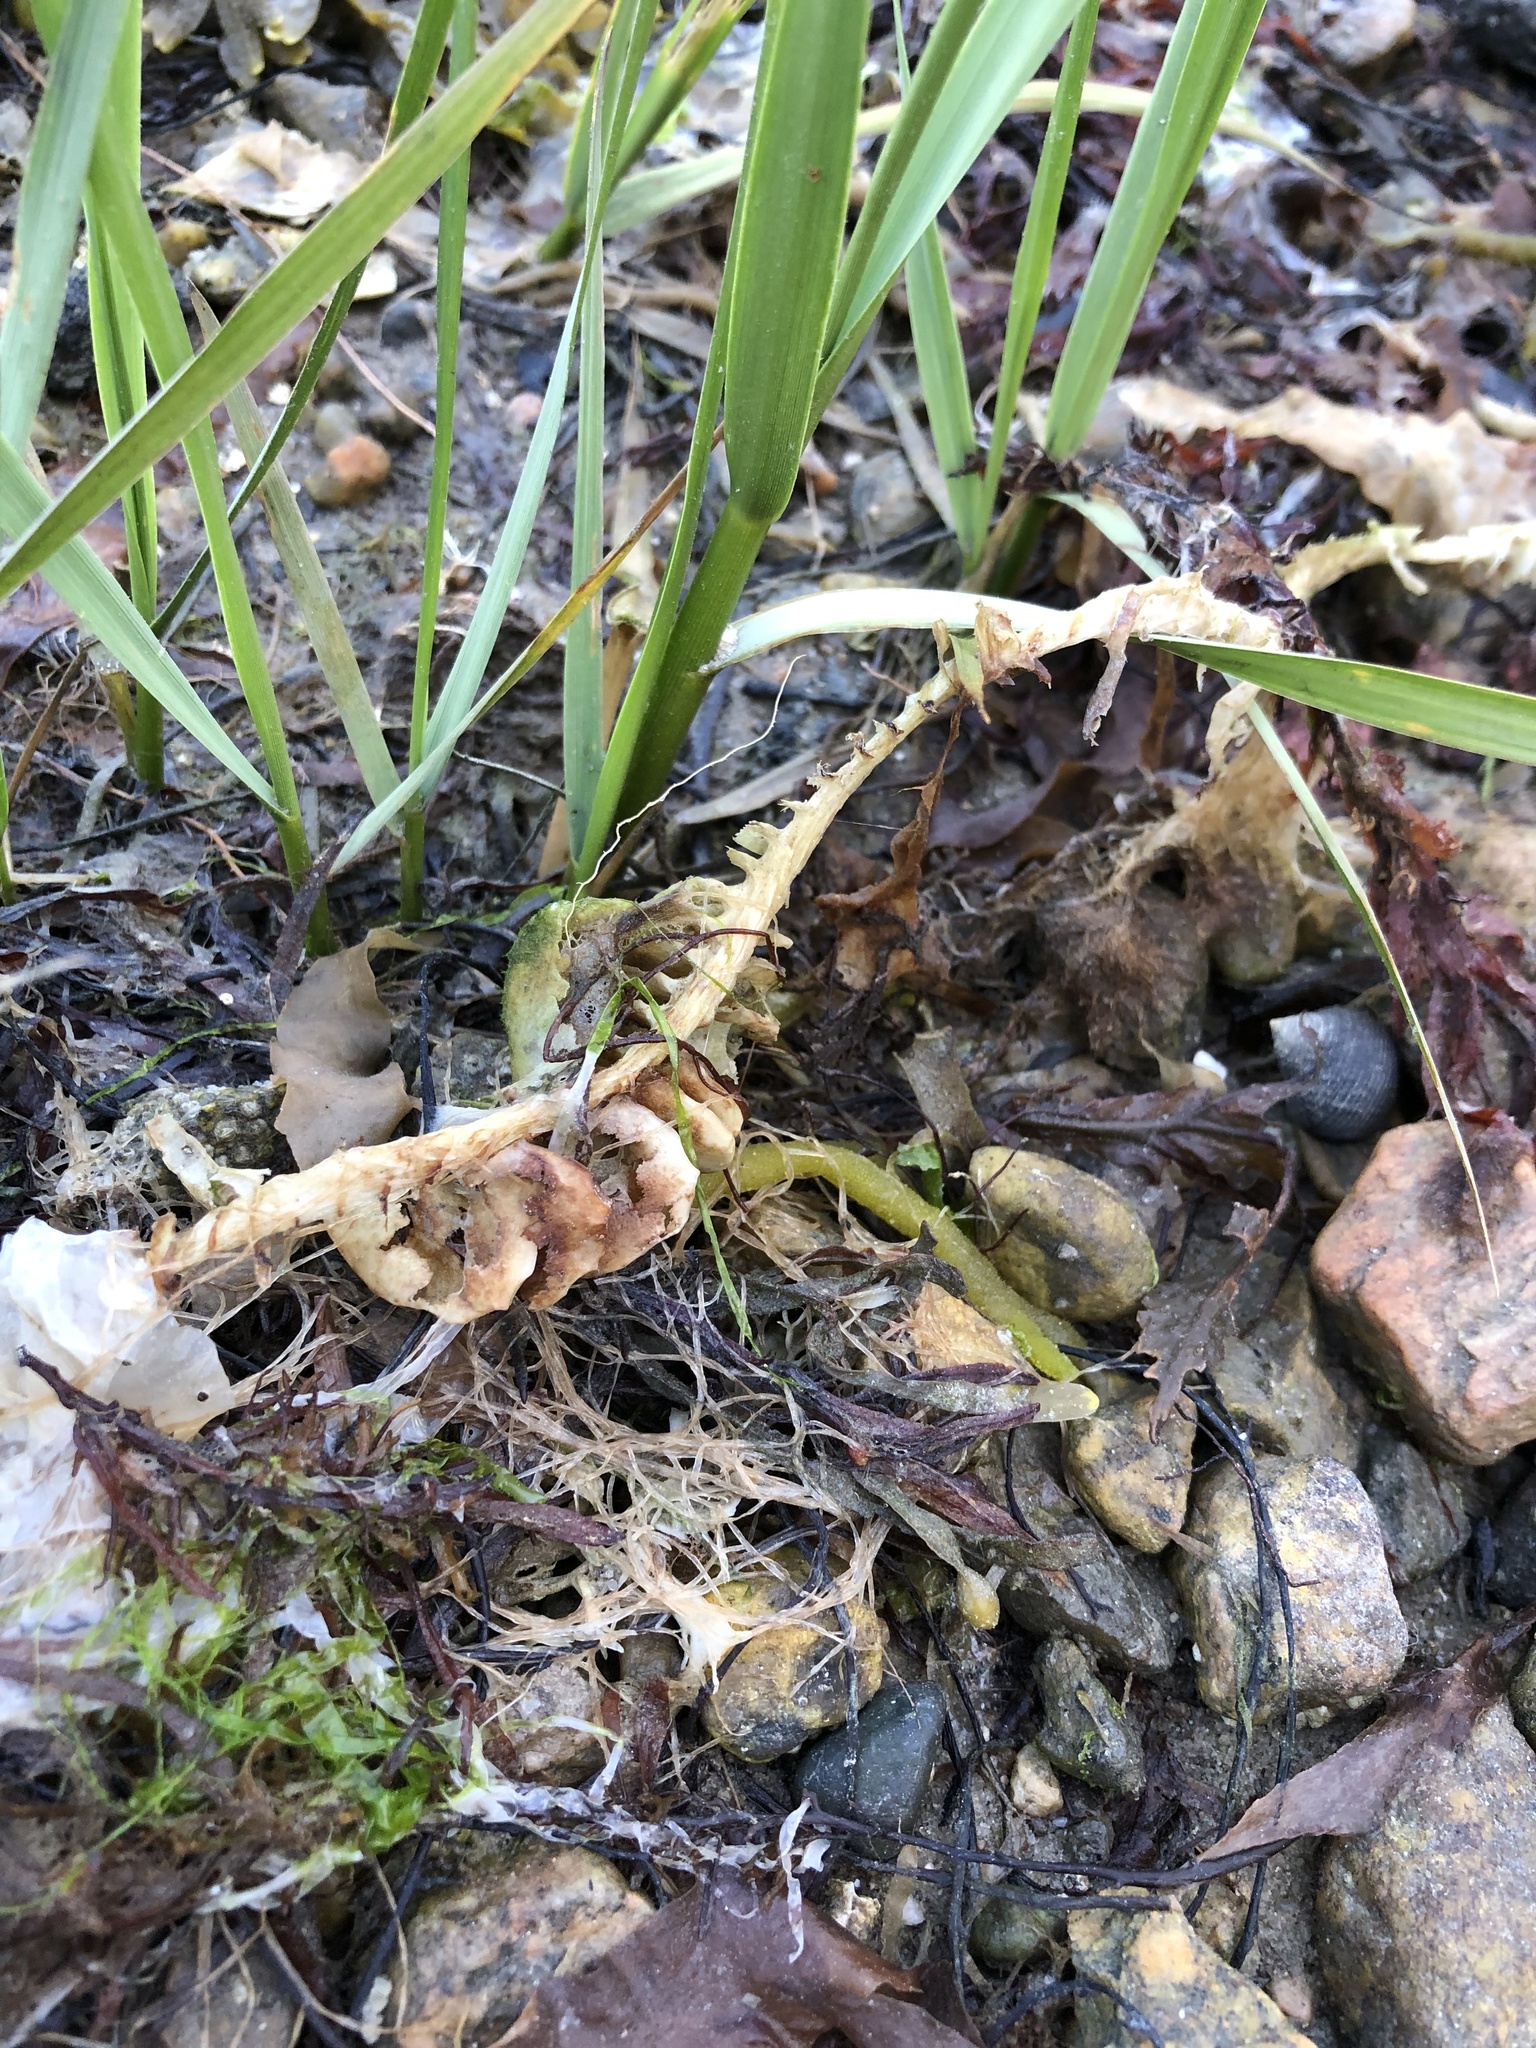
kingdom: Animalia
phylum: Mollusca
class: Gastropoda
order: Neogastropoda
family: Busyconidae
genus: Busycon
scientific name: Busycon
